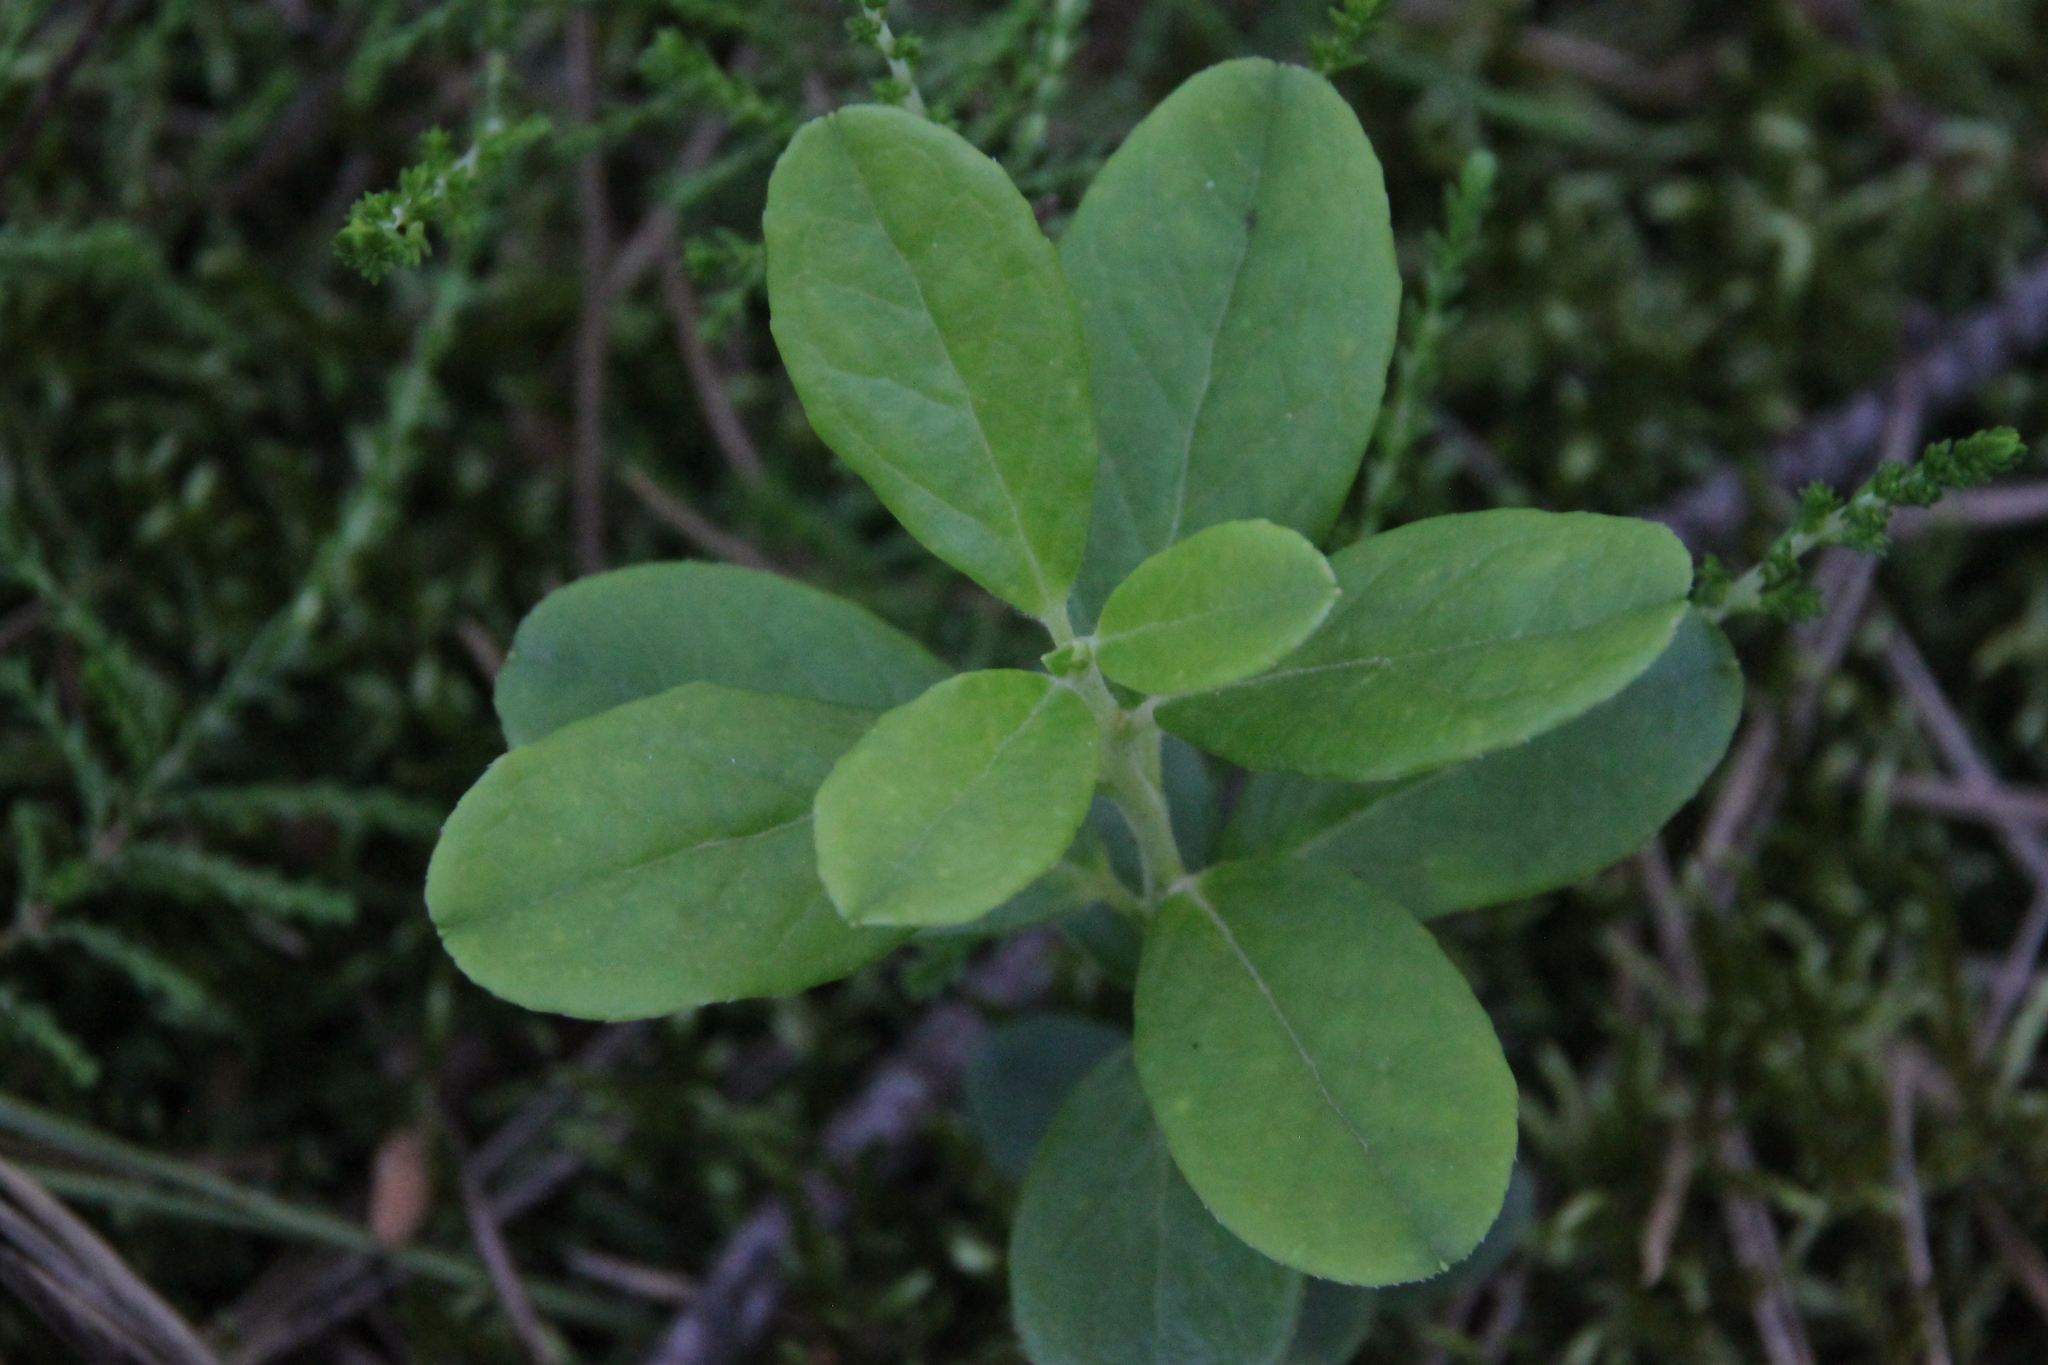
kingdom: Plantae
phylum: Tracheophyta
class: Magnoliopsida
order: Ericales
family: Ericaceae
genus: Vaccinium
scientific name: Vaccinium vitis-idaea
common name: Cowberry
